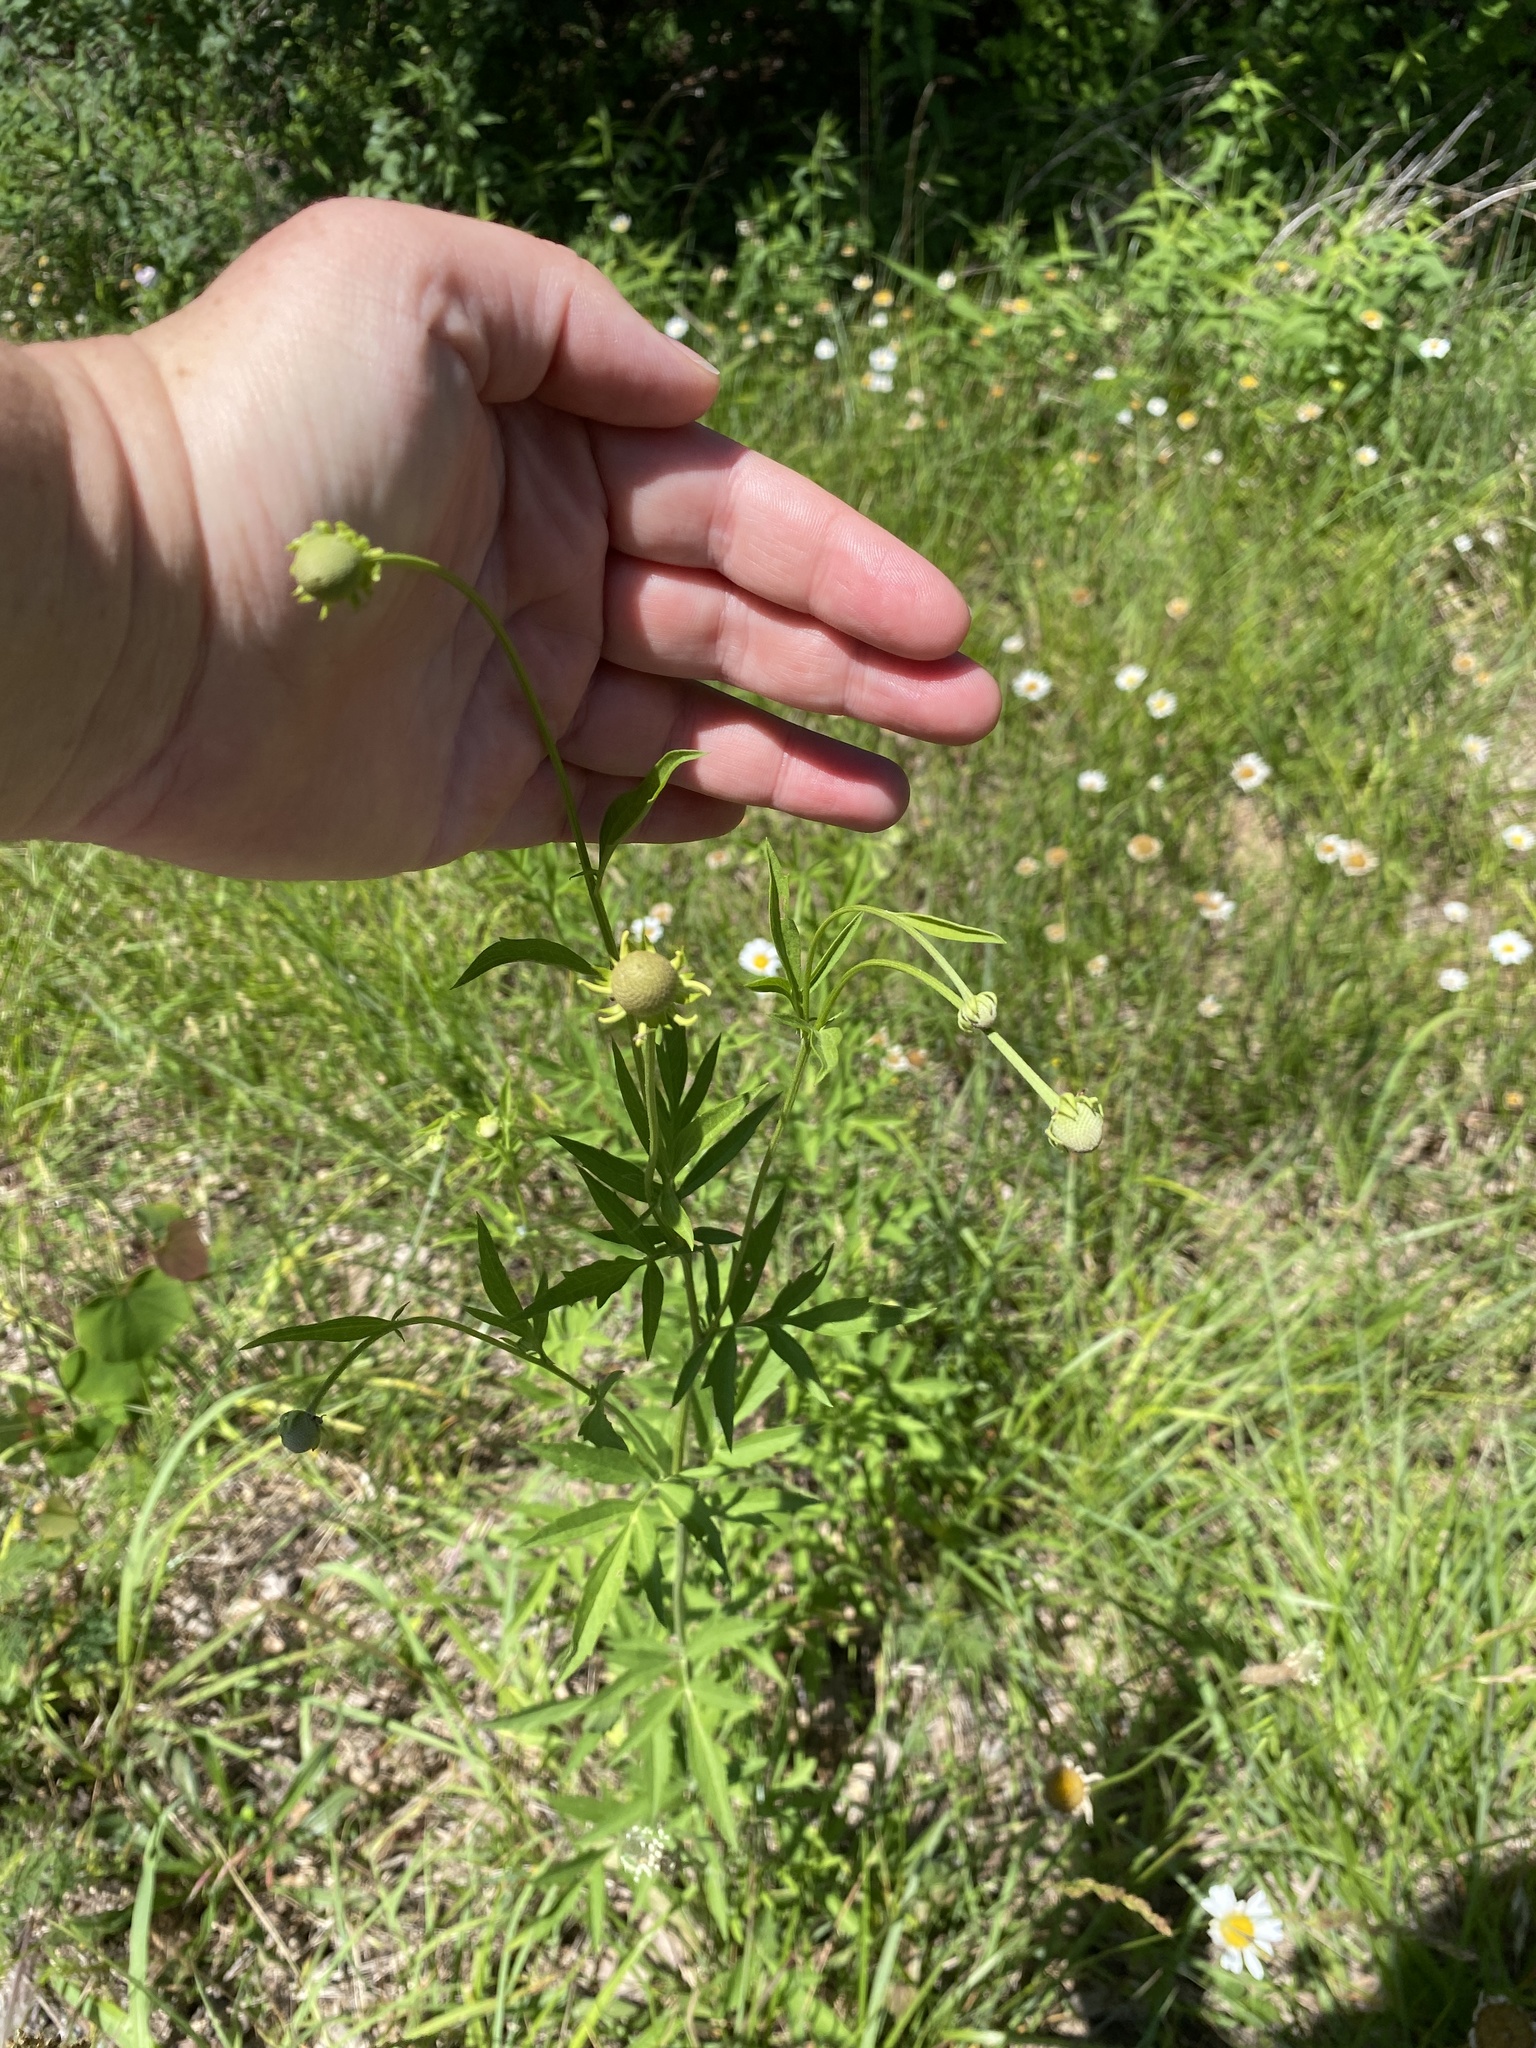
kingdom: Plantae
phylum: Tracheophyta
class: Magnoliopsida
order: Asterales
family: Asteraceae
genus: Ratibida
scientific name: Ratibida pinnata
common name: Drooping prairie-coneflower
